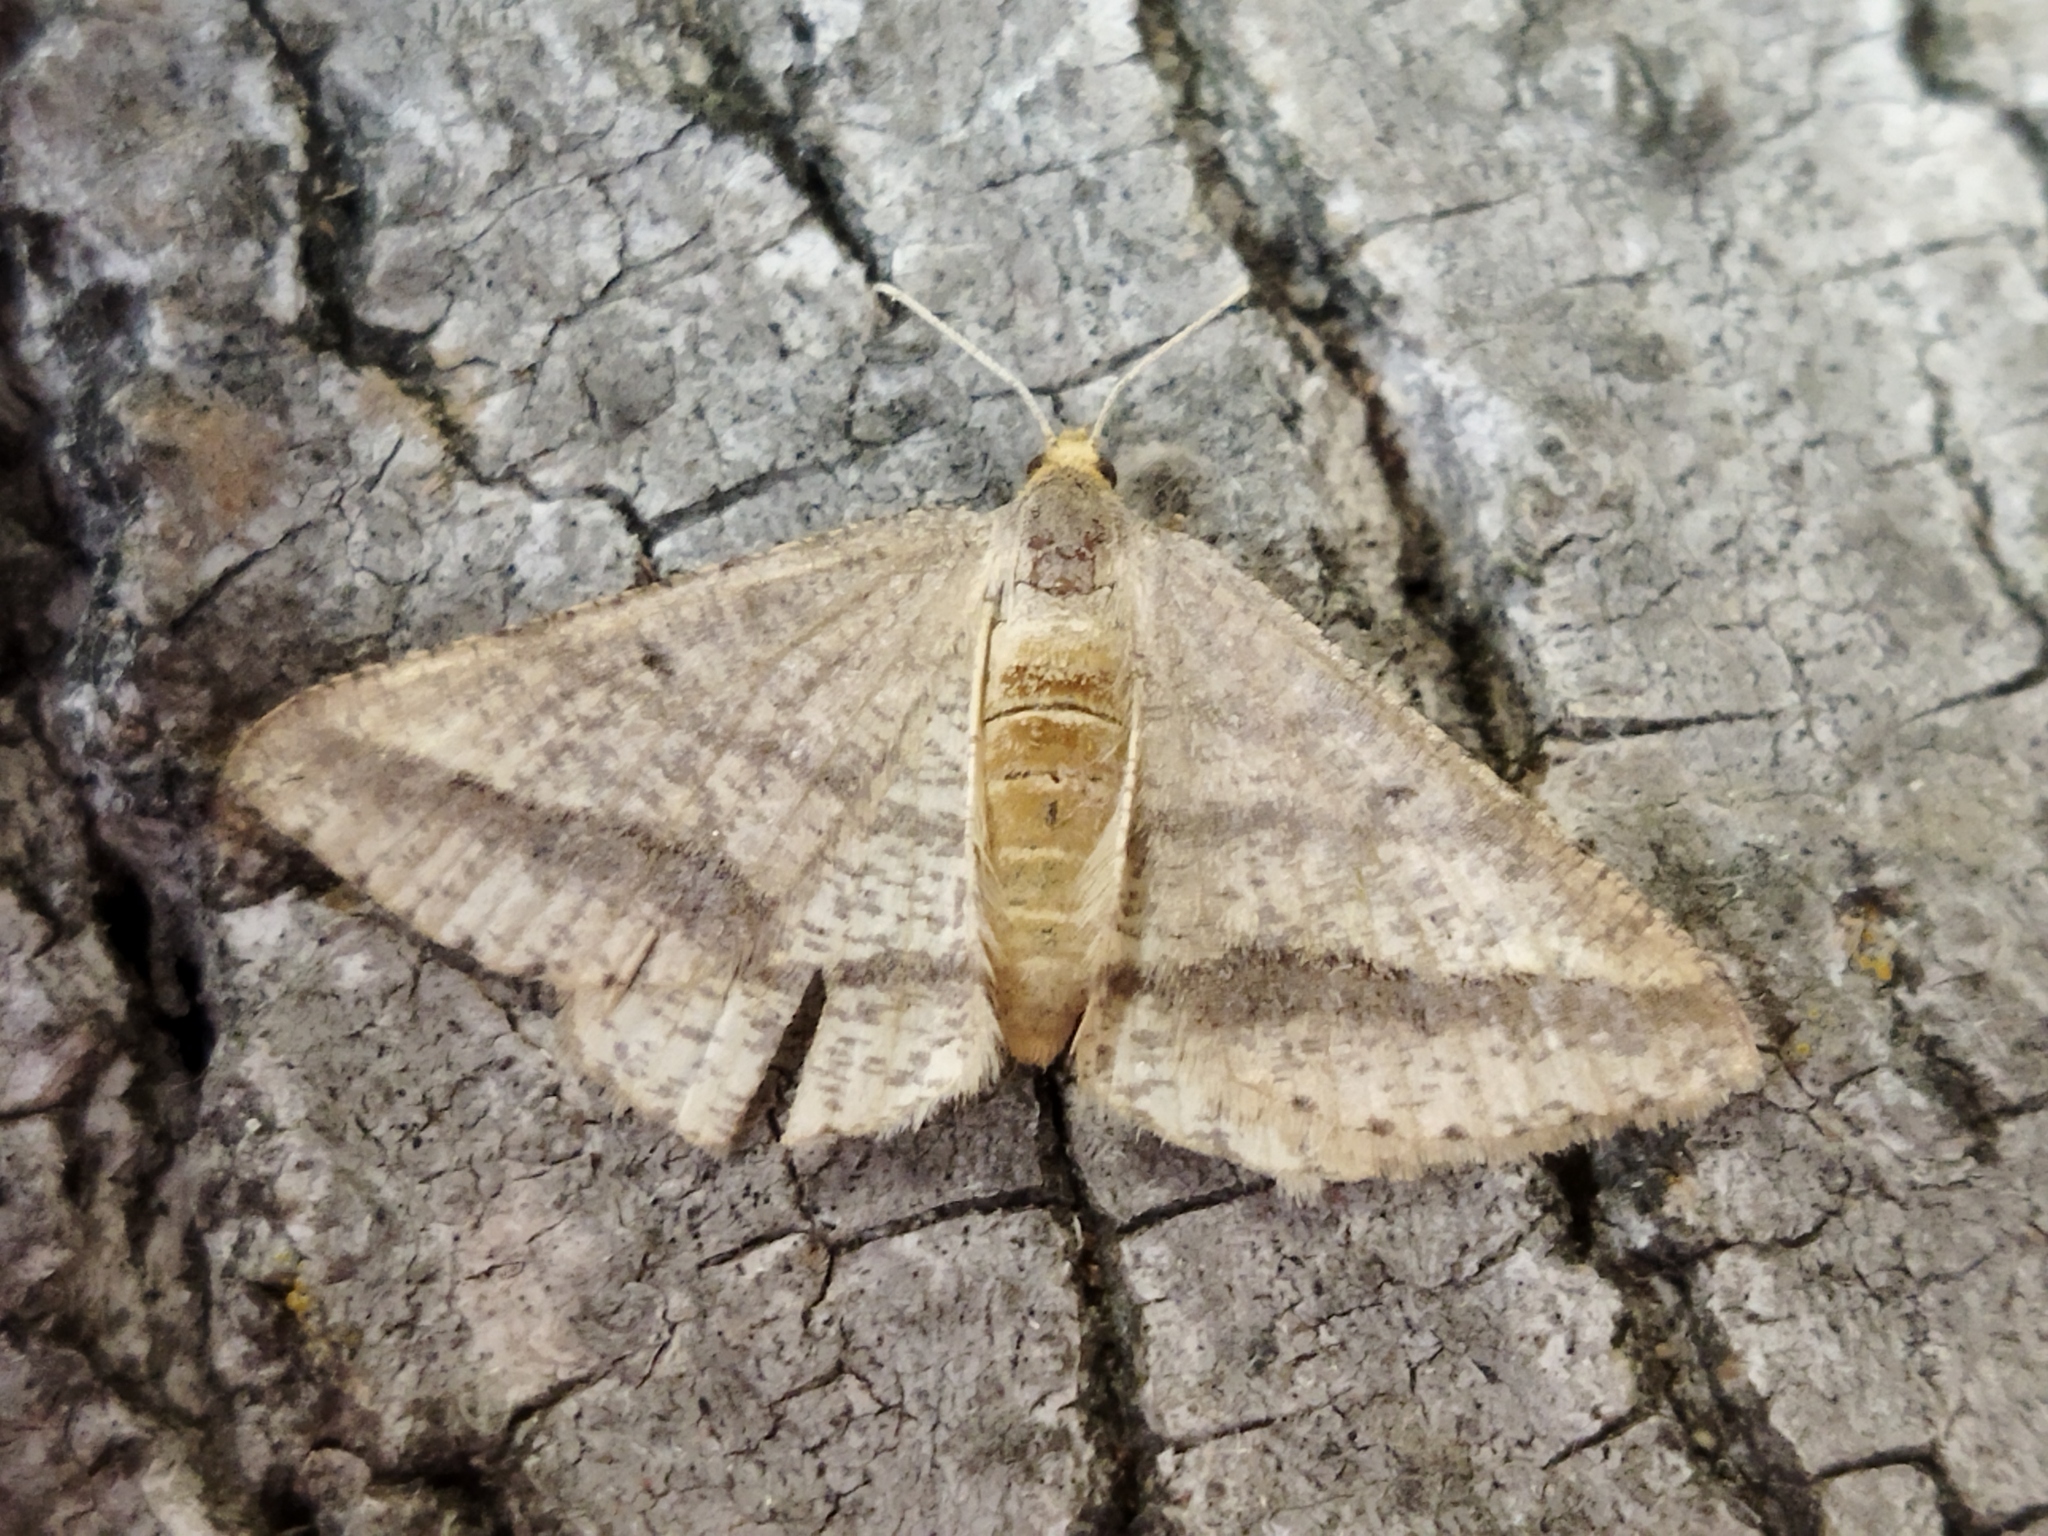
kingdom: Animalia
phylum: Arthropoda
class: Insecta
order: Lepidoptera
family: Geometridae
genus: Tephrina
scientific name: Tephrina arenacearia
